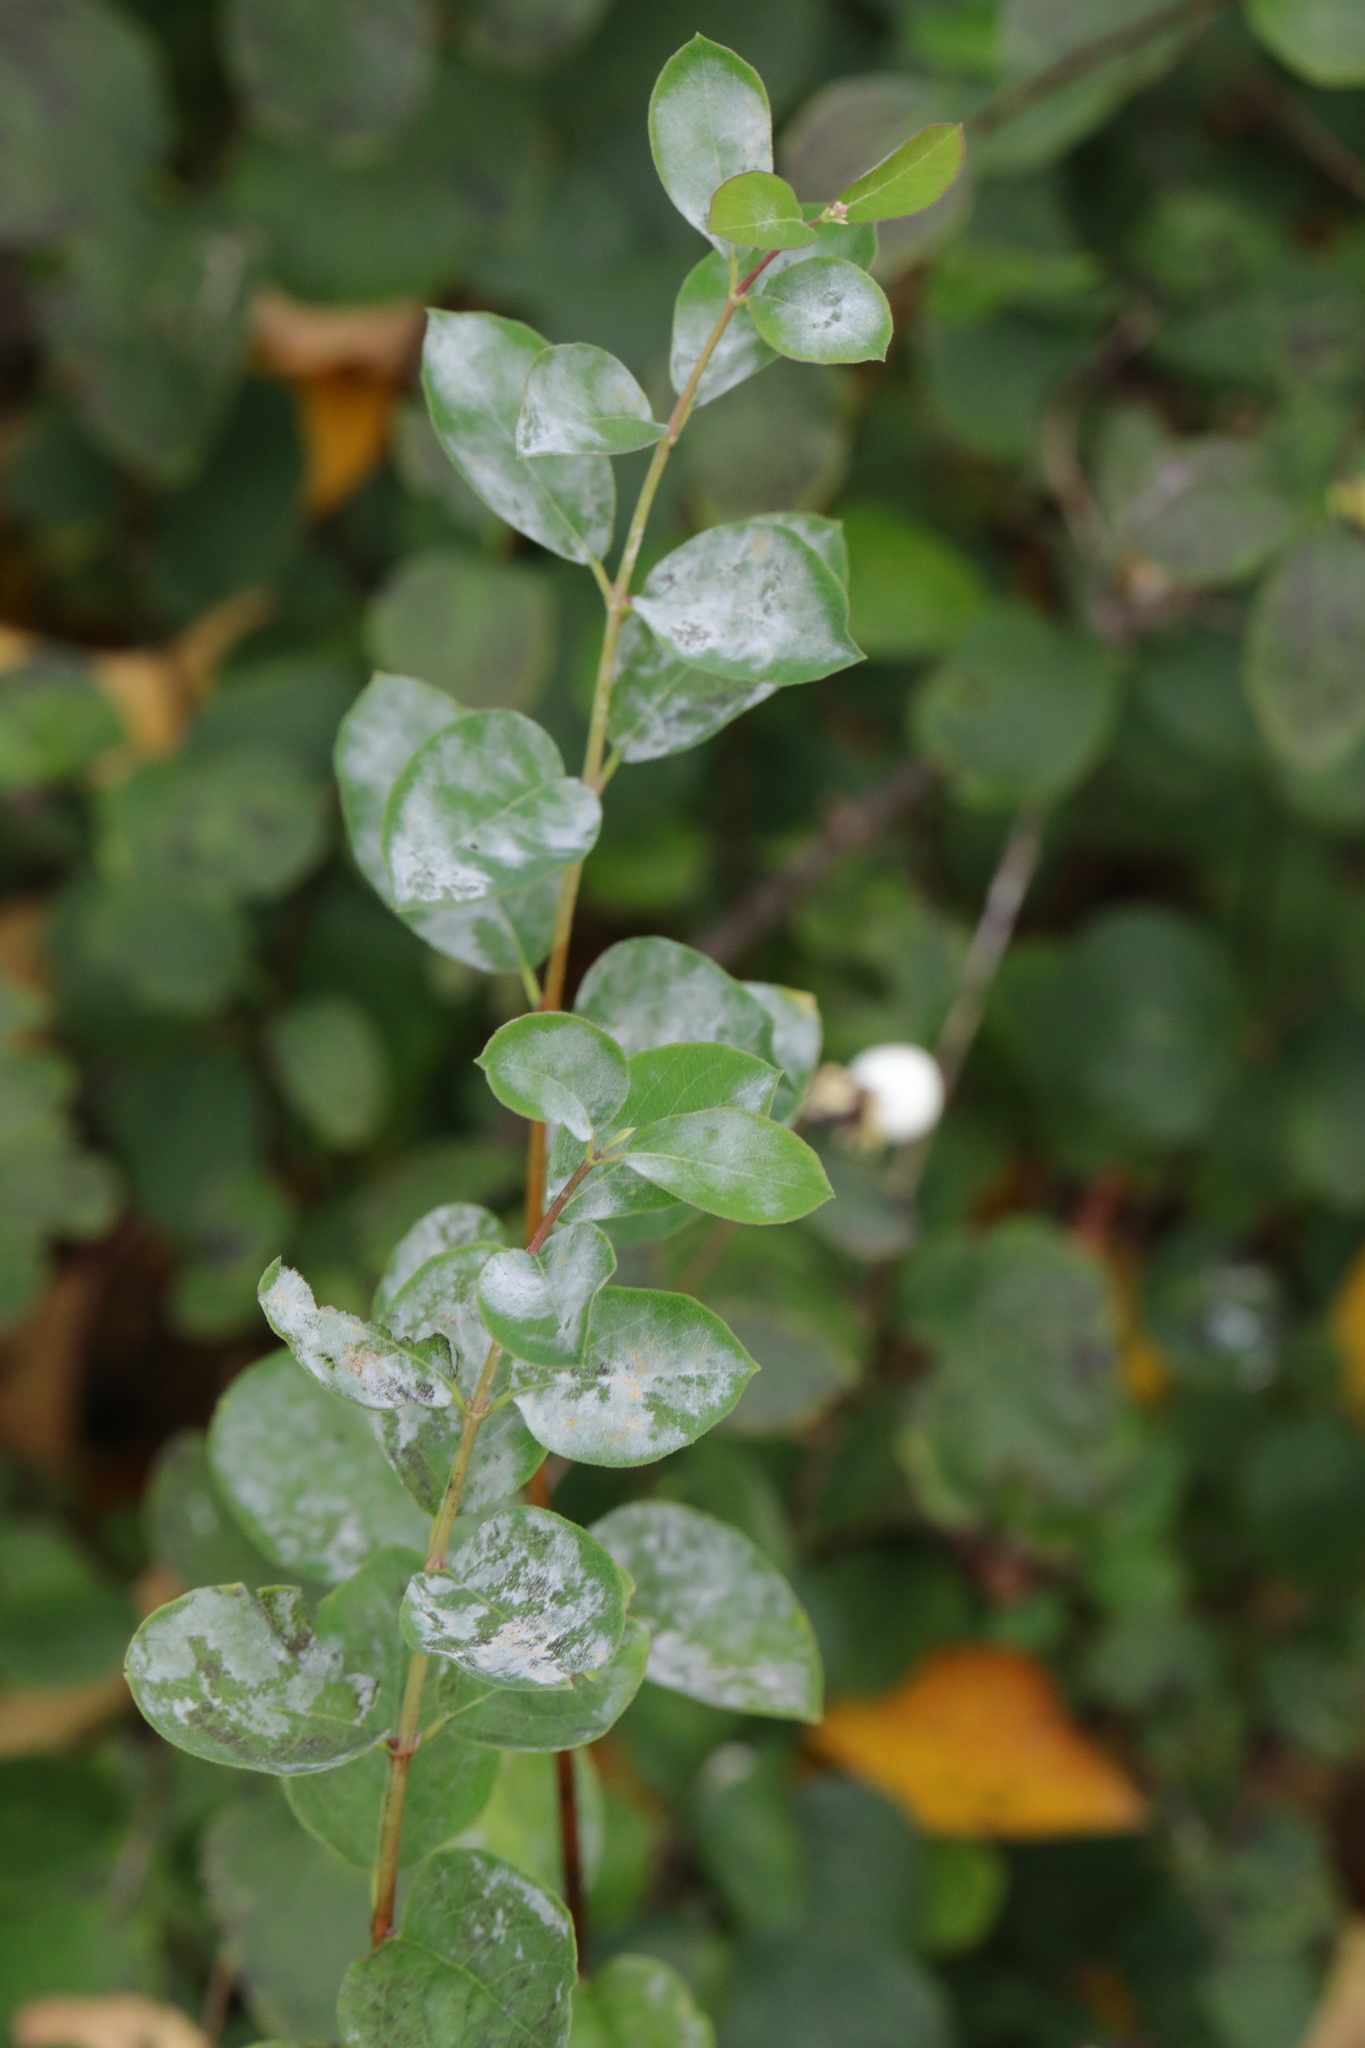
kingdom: Fungi
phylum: Ascomycota
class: Leotiomycetes
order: Helotiales
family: Erysiphaceae
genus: Erysiphe
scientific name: Erysiphe symphoricarpi
